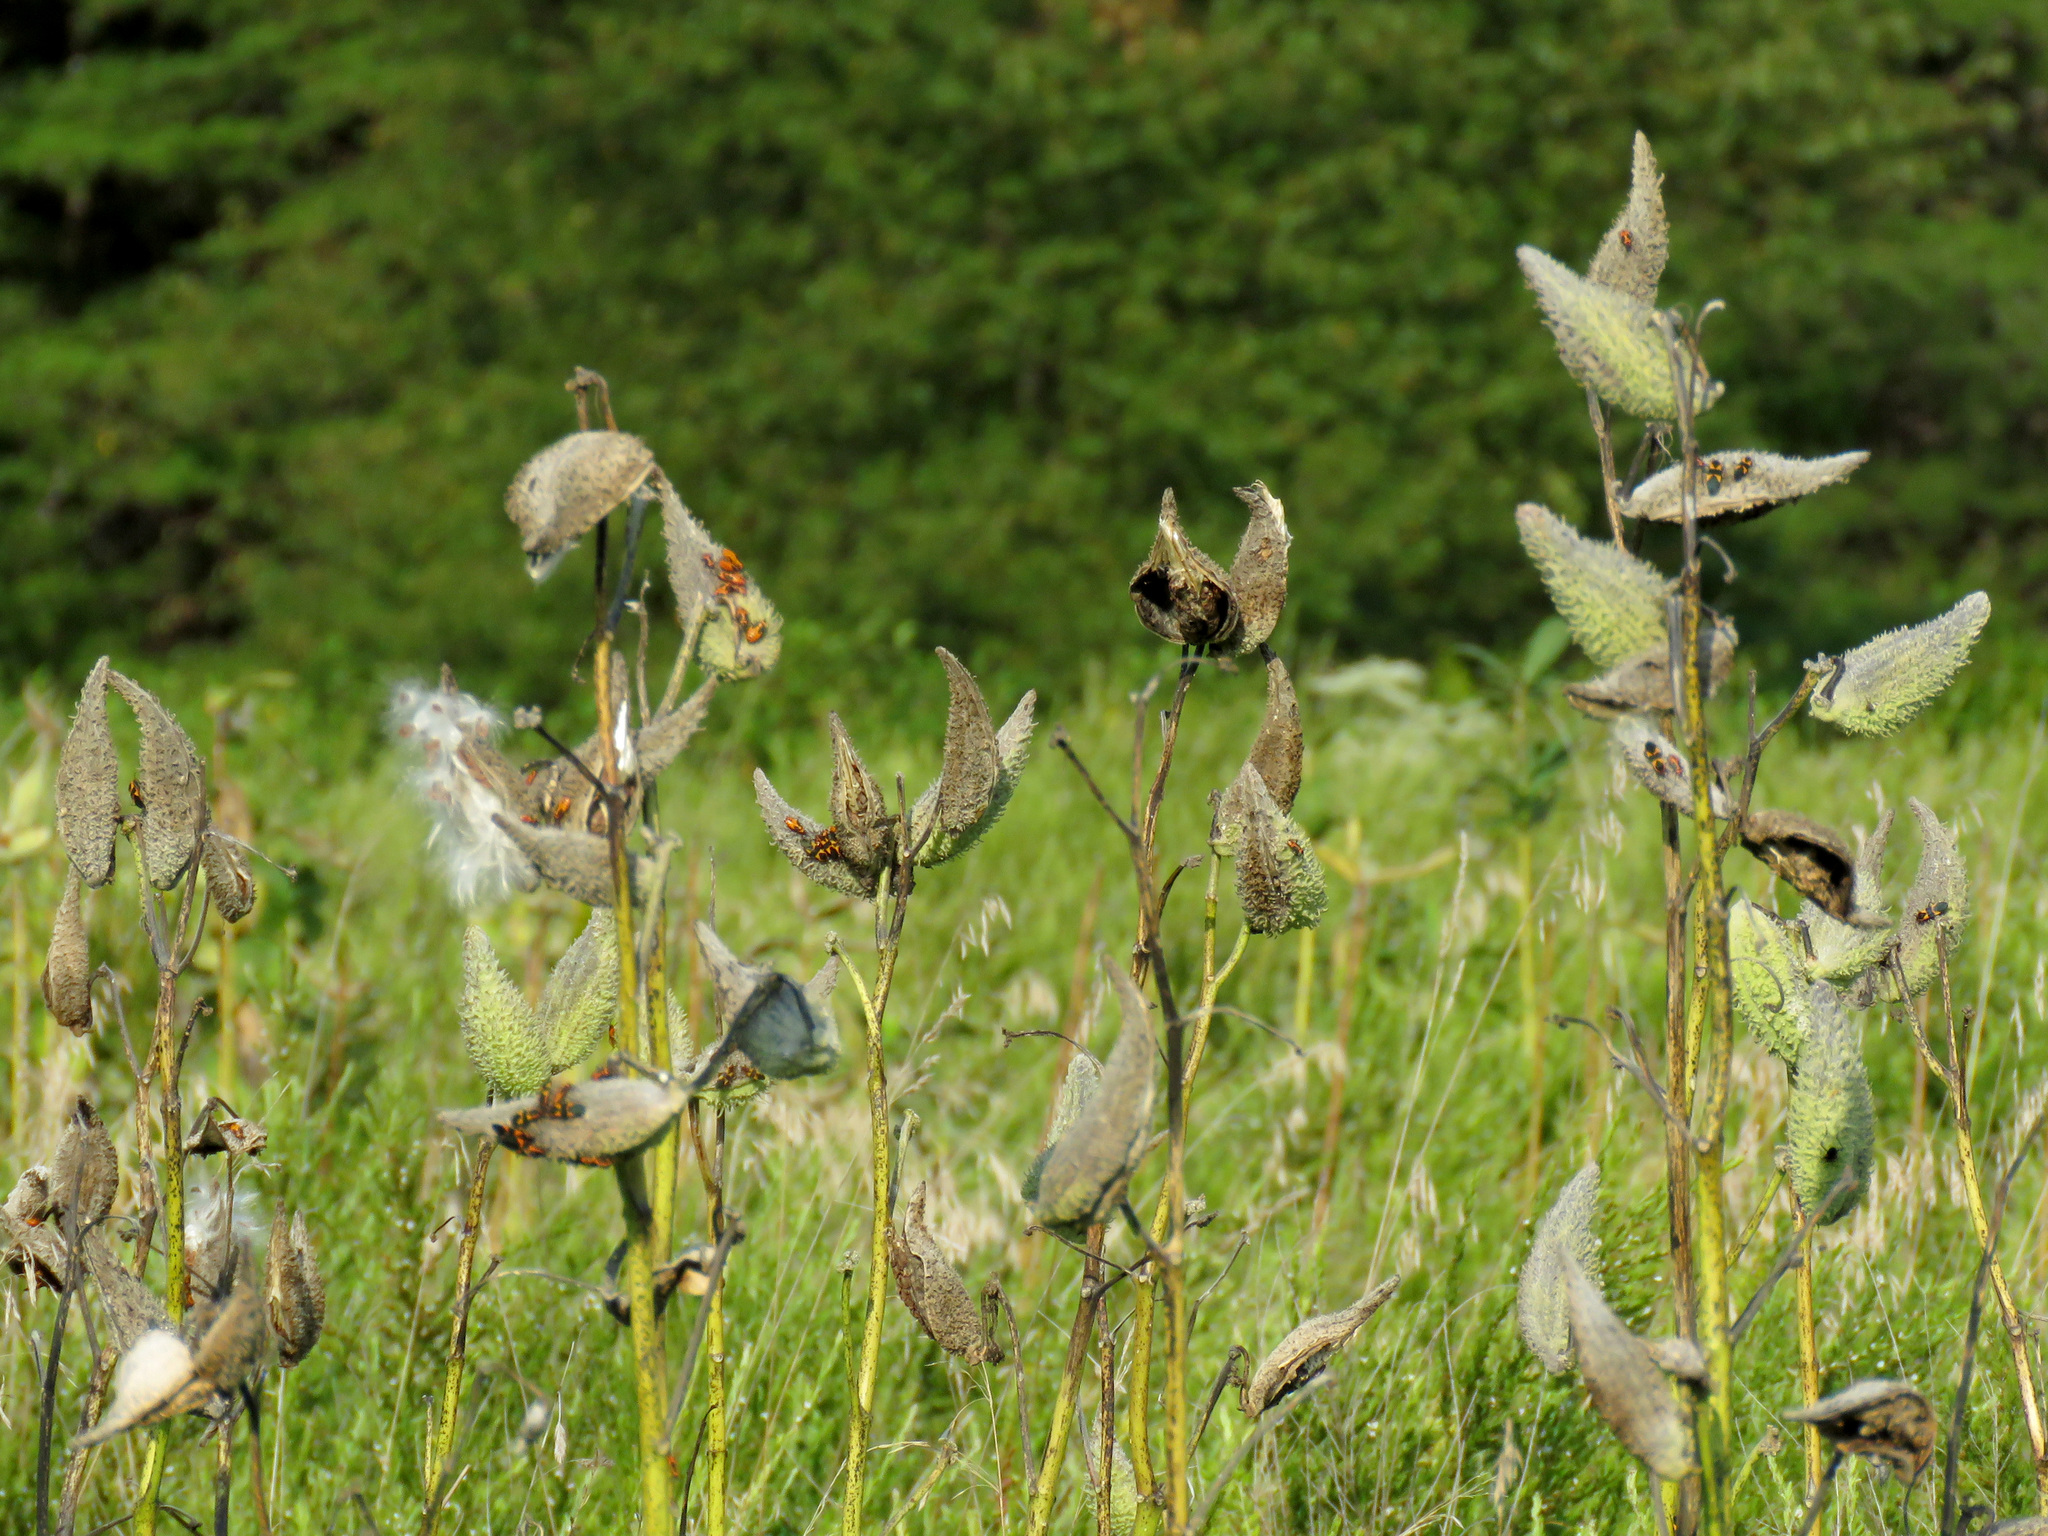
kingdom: Plantae
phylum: Tracheophyta
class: Magnoliopsida
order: Gentianales
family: Apocynaceae
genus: Asclepias
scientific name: Asclepias syriaca
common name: Common milkweed
